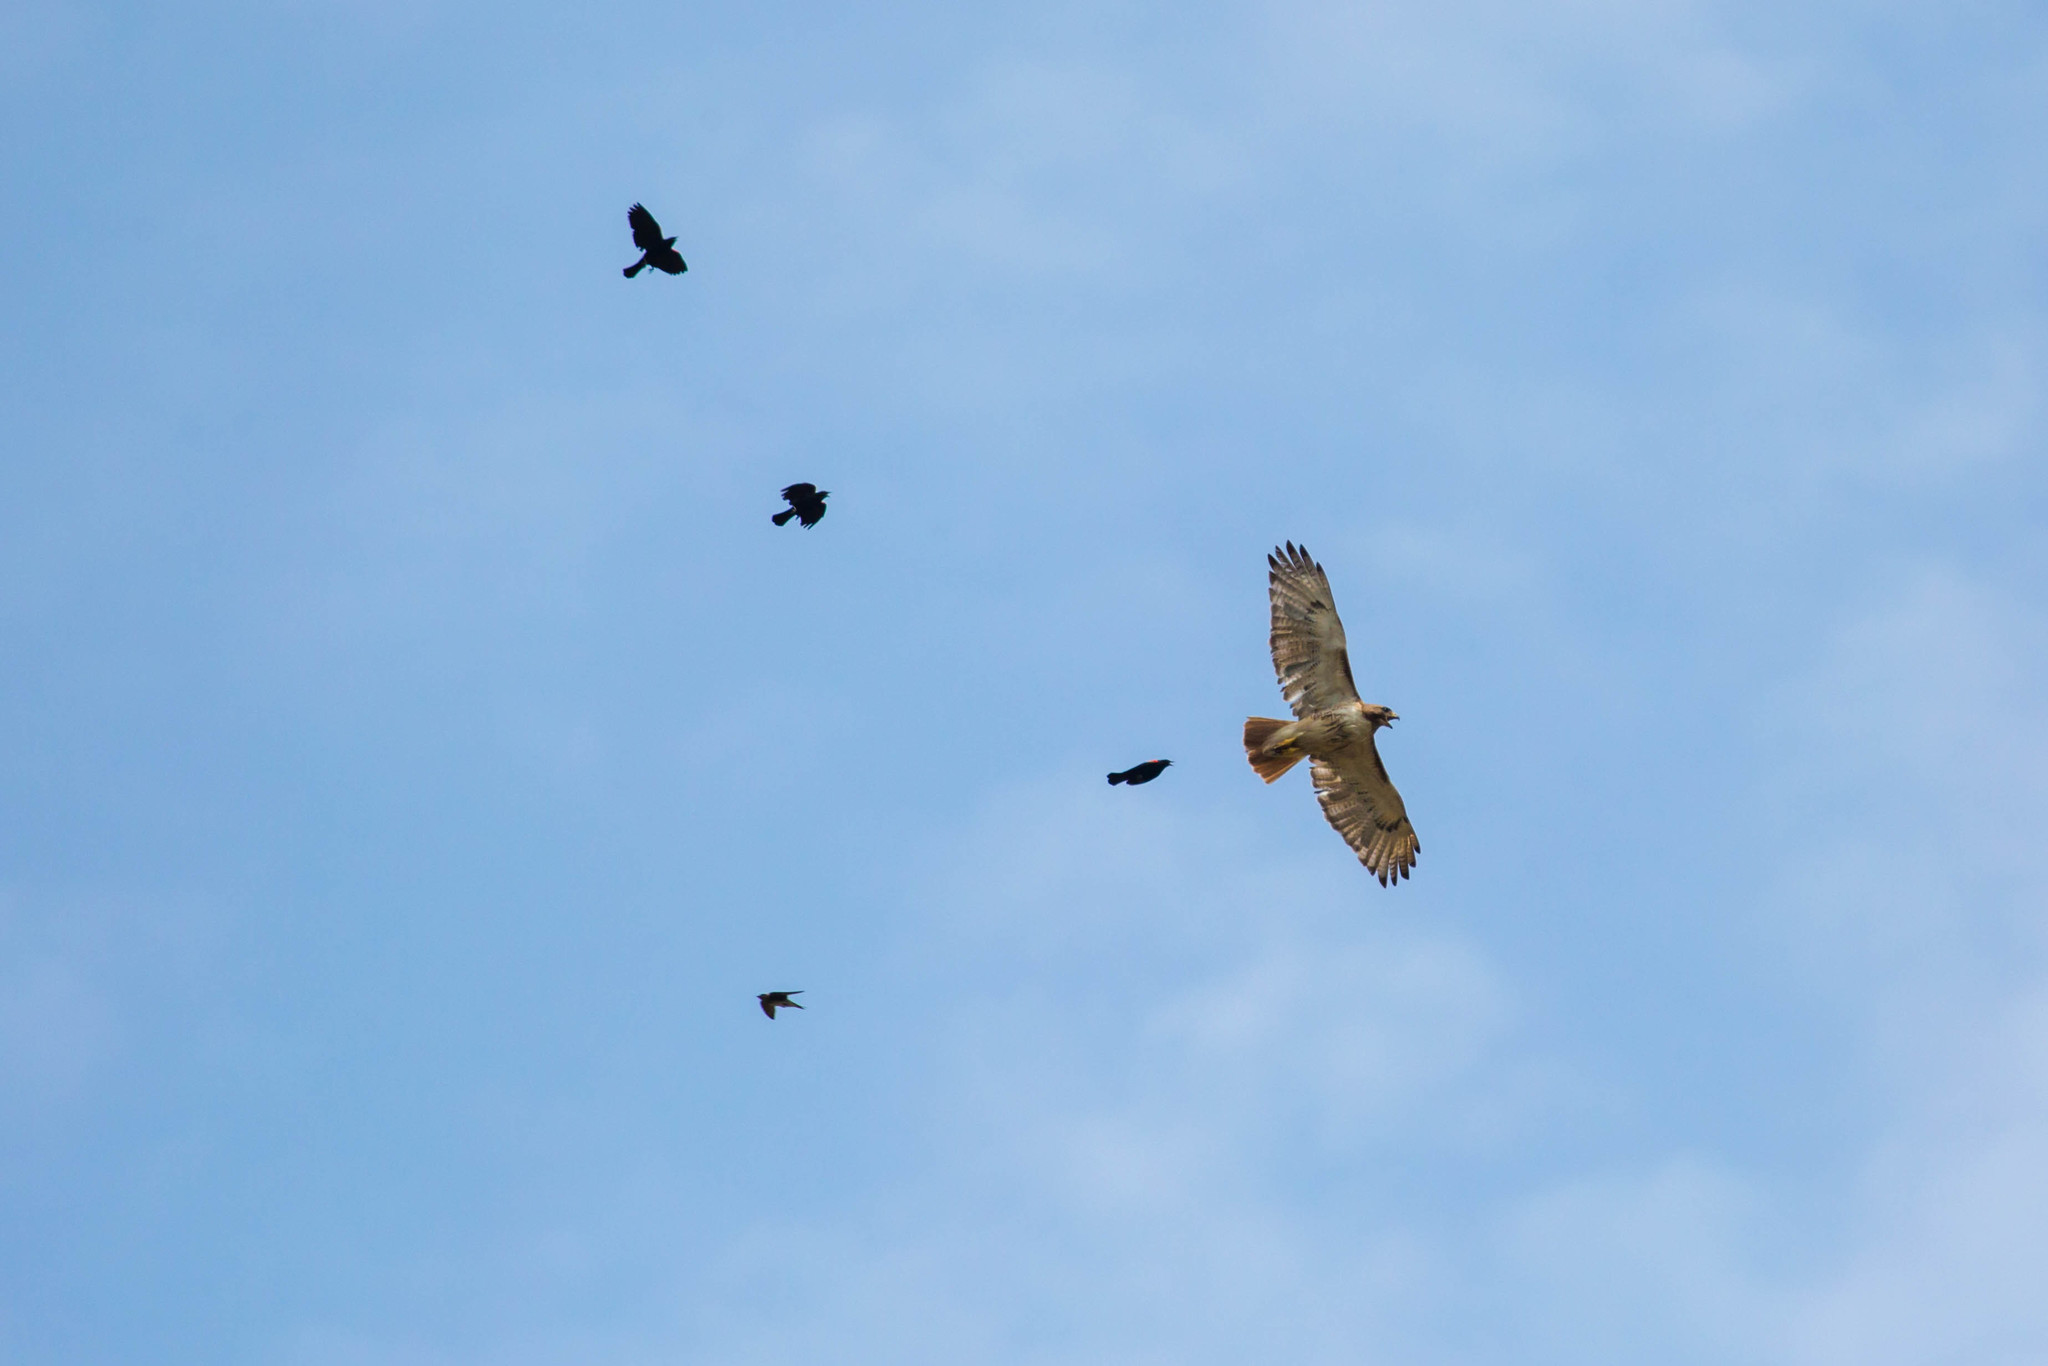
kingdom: Animalia
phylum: Chordata
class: Aves
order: Accipitriformes
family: Accipitridae
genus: Buteo
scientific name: Buteo jamaicensis
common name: Red-tailed hawk
